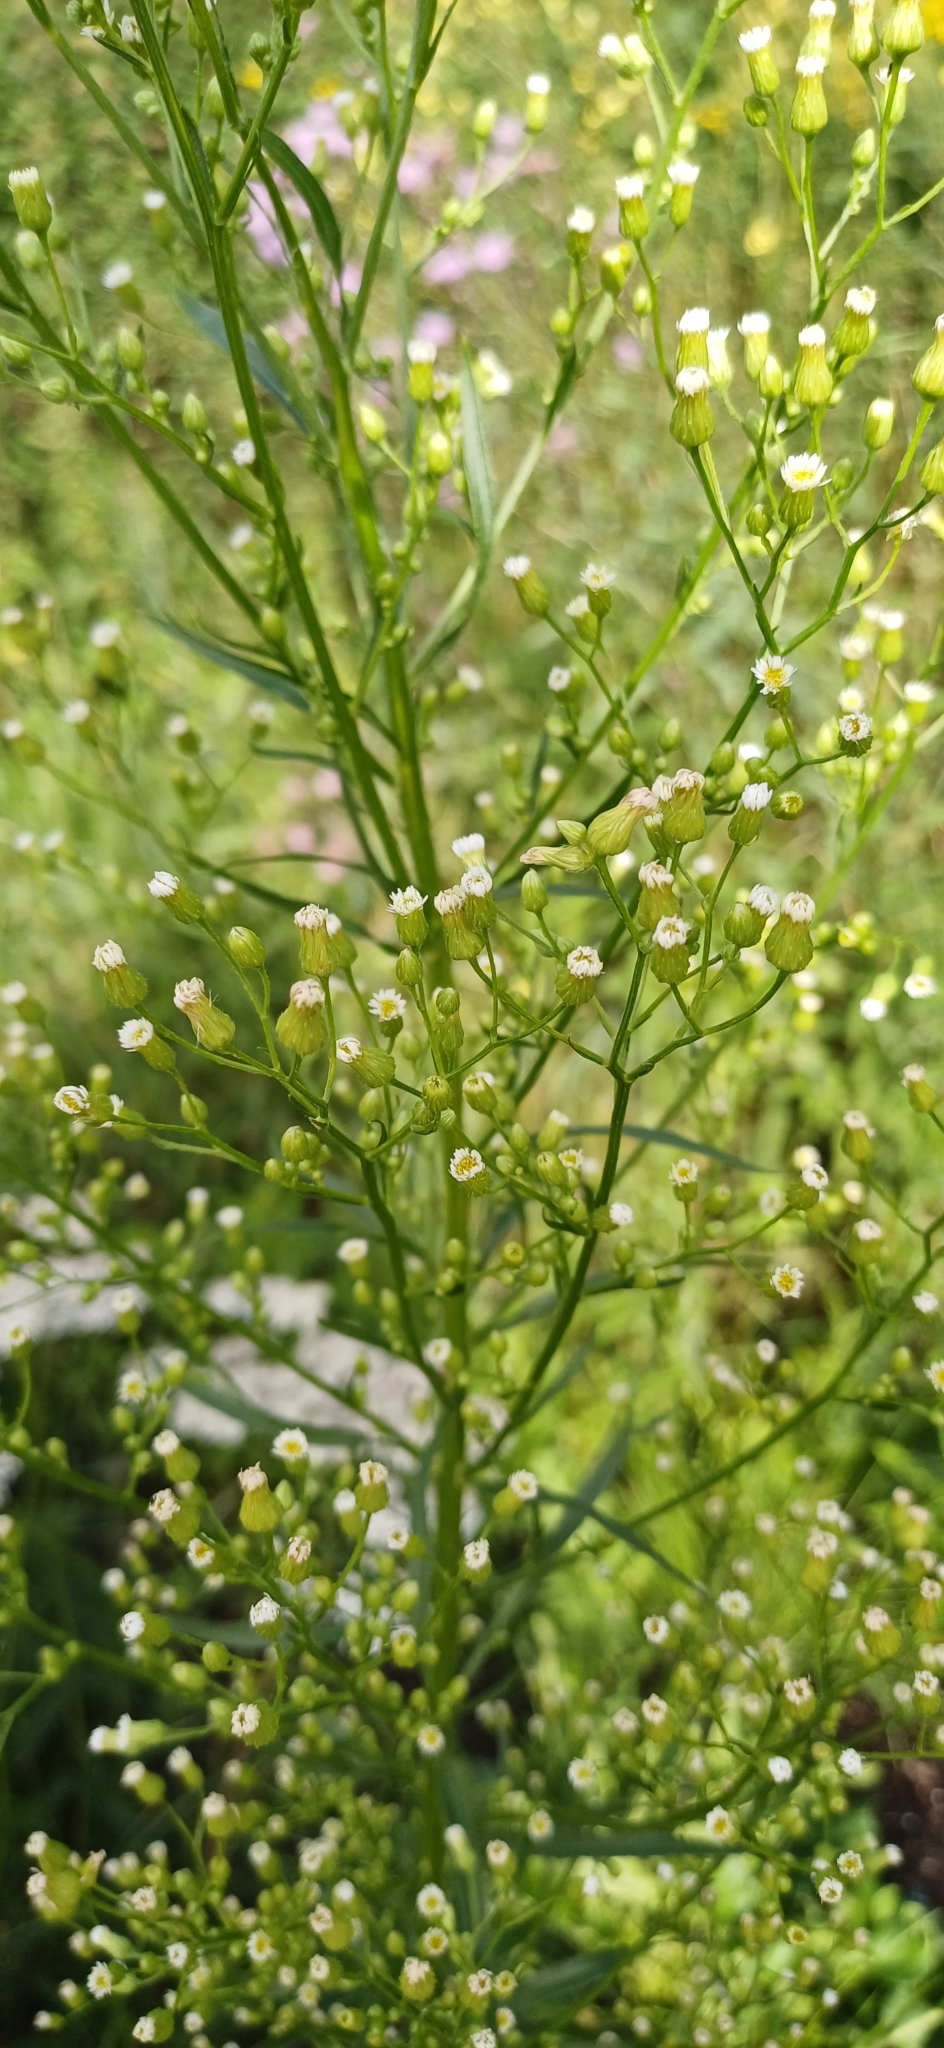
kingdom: Plantae
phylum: Tracheophyta
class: Magnoliopsida
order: Asterales
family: Asteraceae
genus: Erigeron
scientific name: Erigeron canadensis
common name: Canadian fleabane
